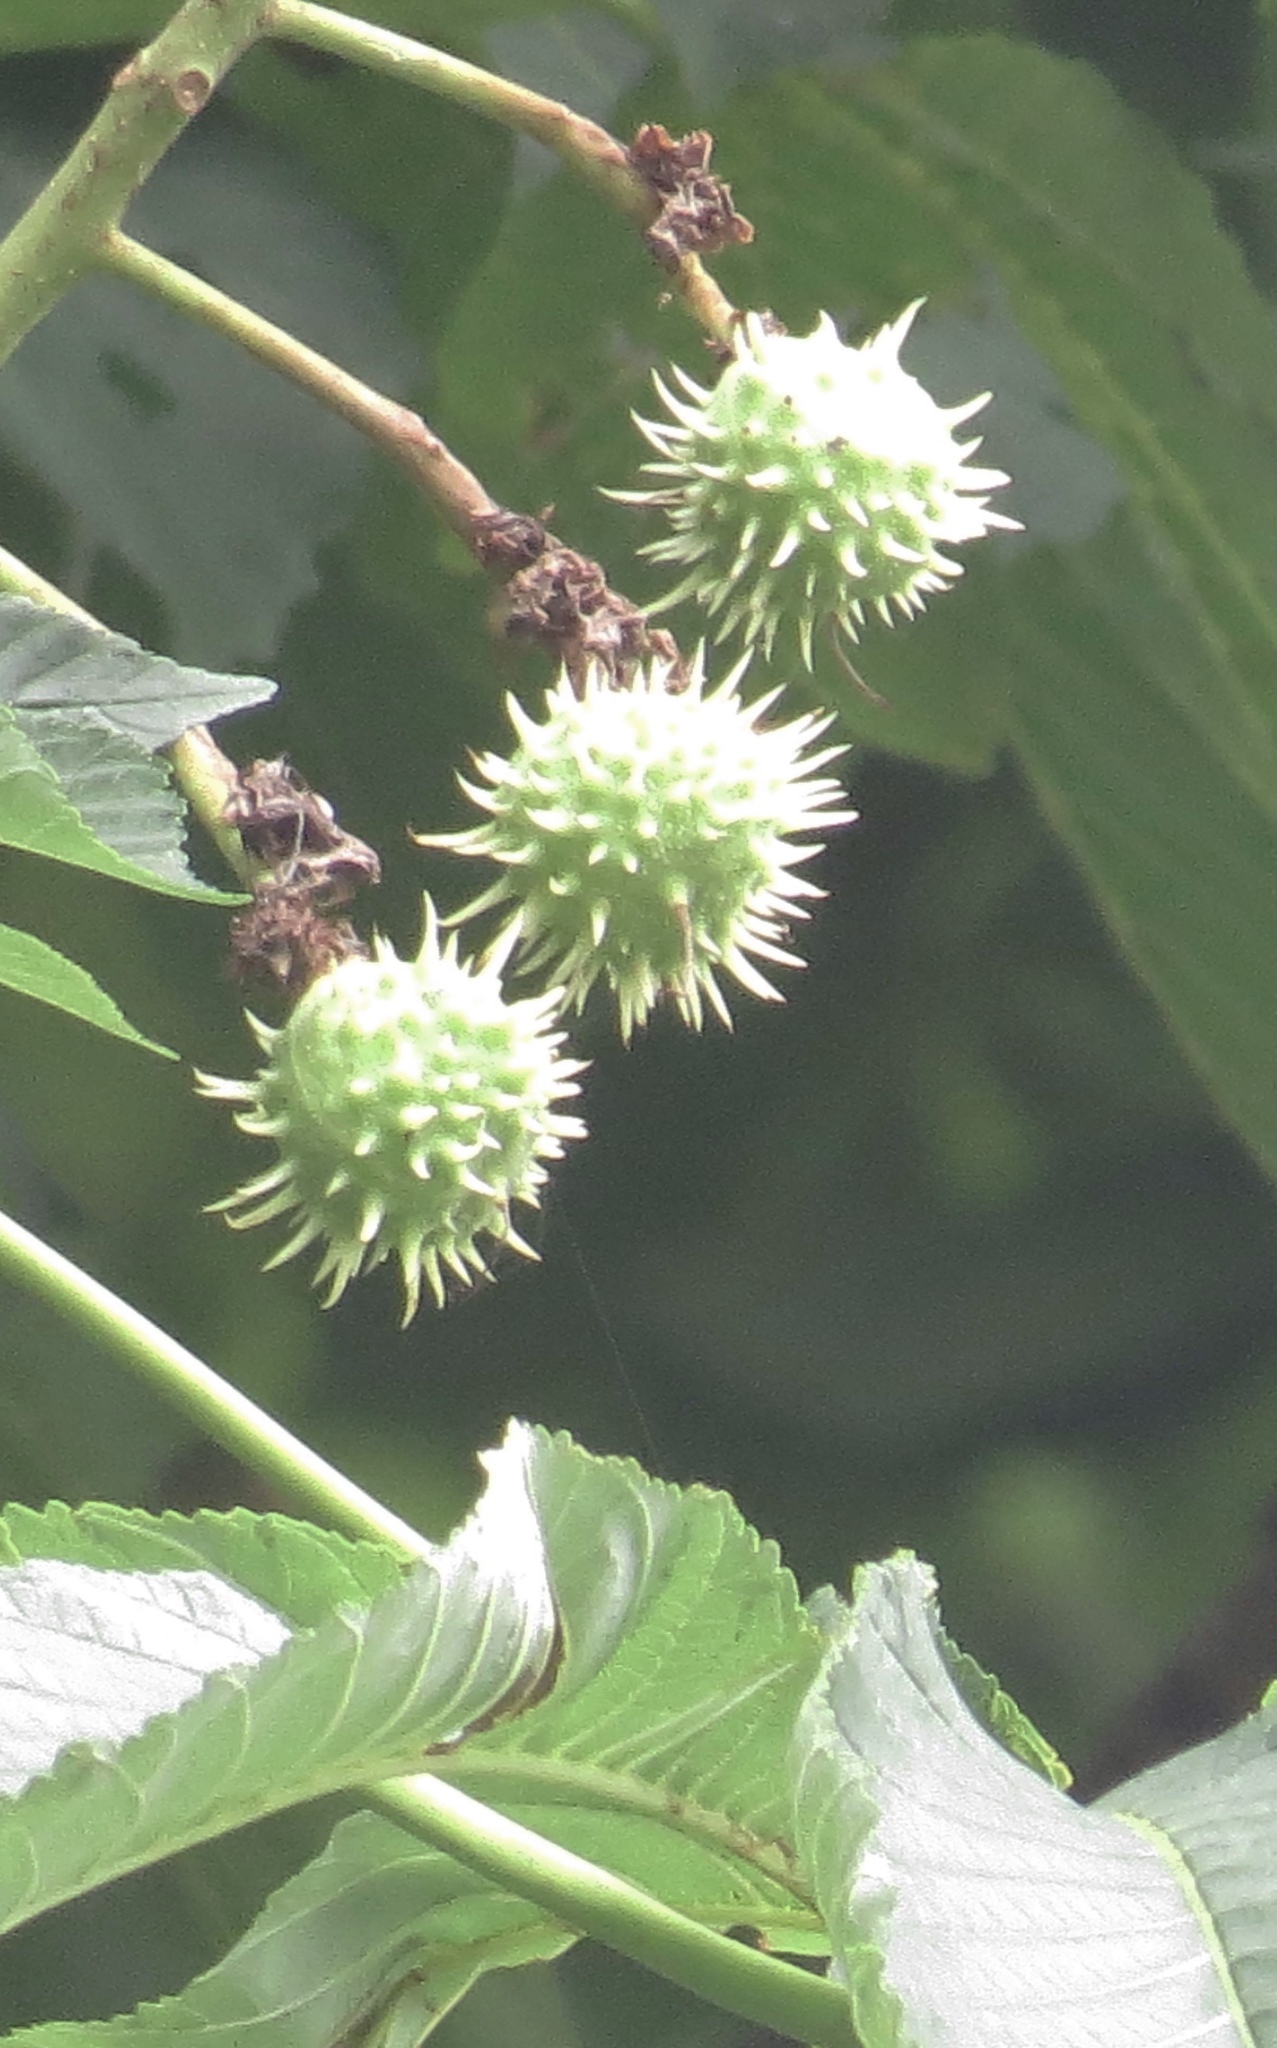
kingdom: Plantae
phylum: Tracheophyta
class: Magnoliopsida
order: Sapindales
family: Sapindaceae
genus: Aesculus
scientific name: Aesculus hippocastanum
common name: Horse-chestnut
